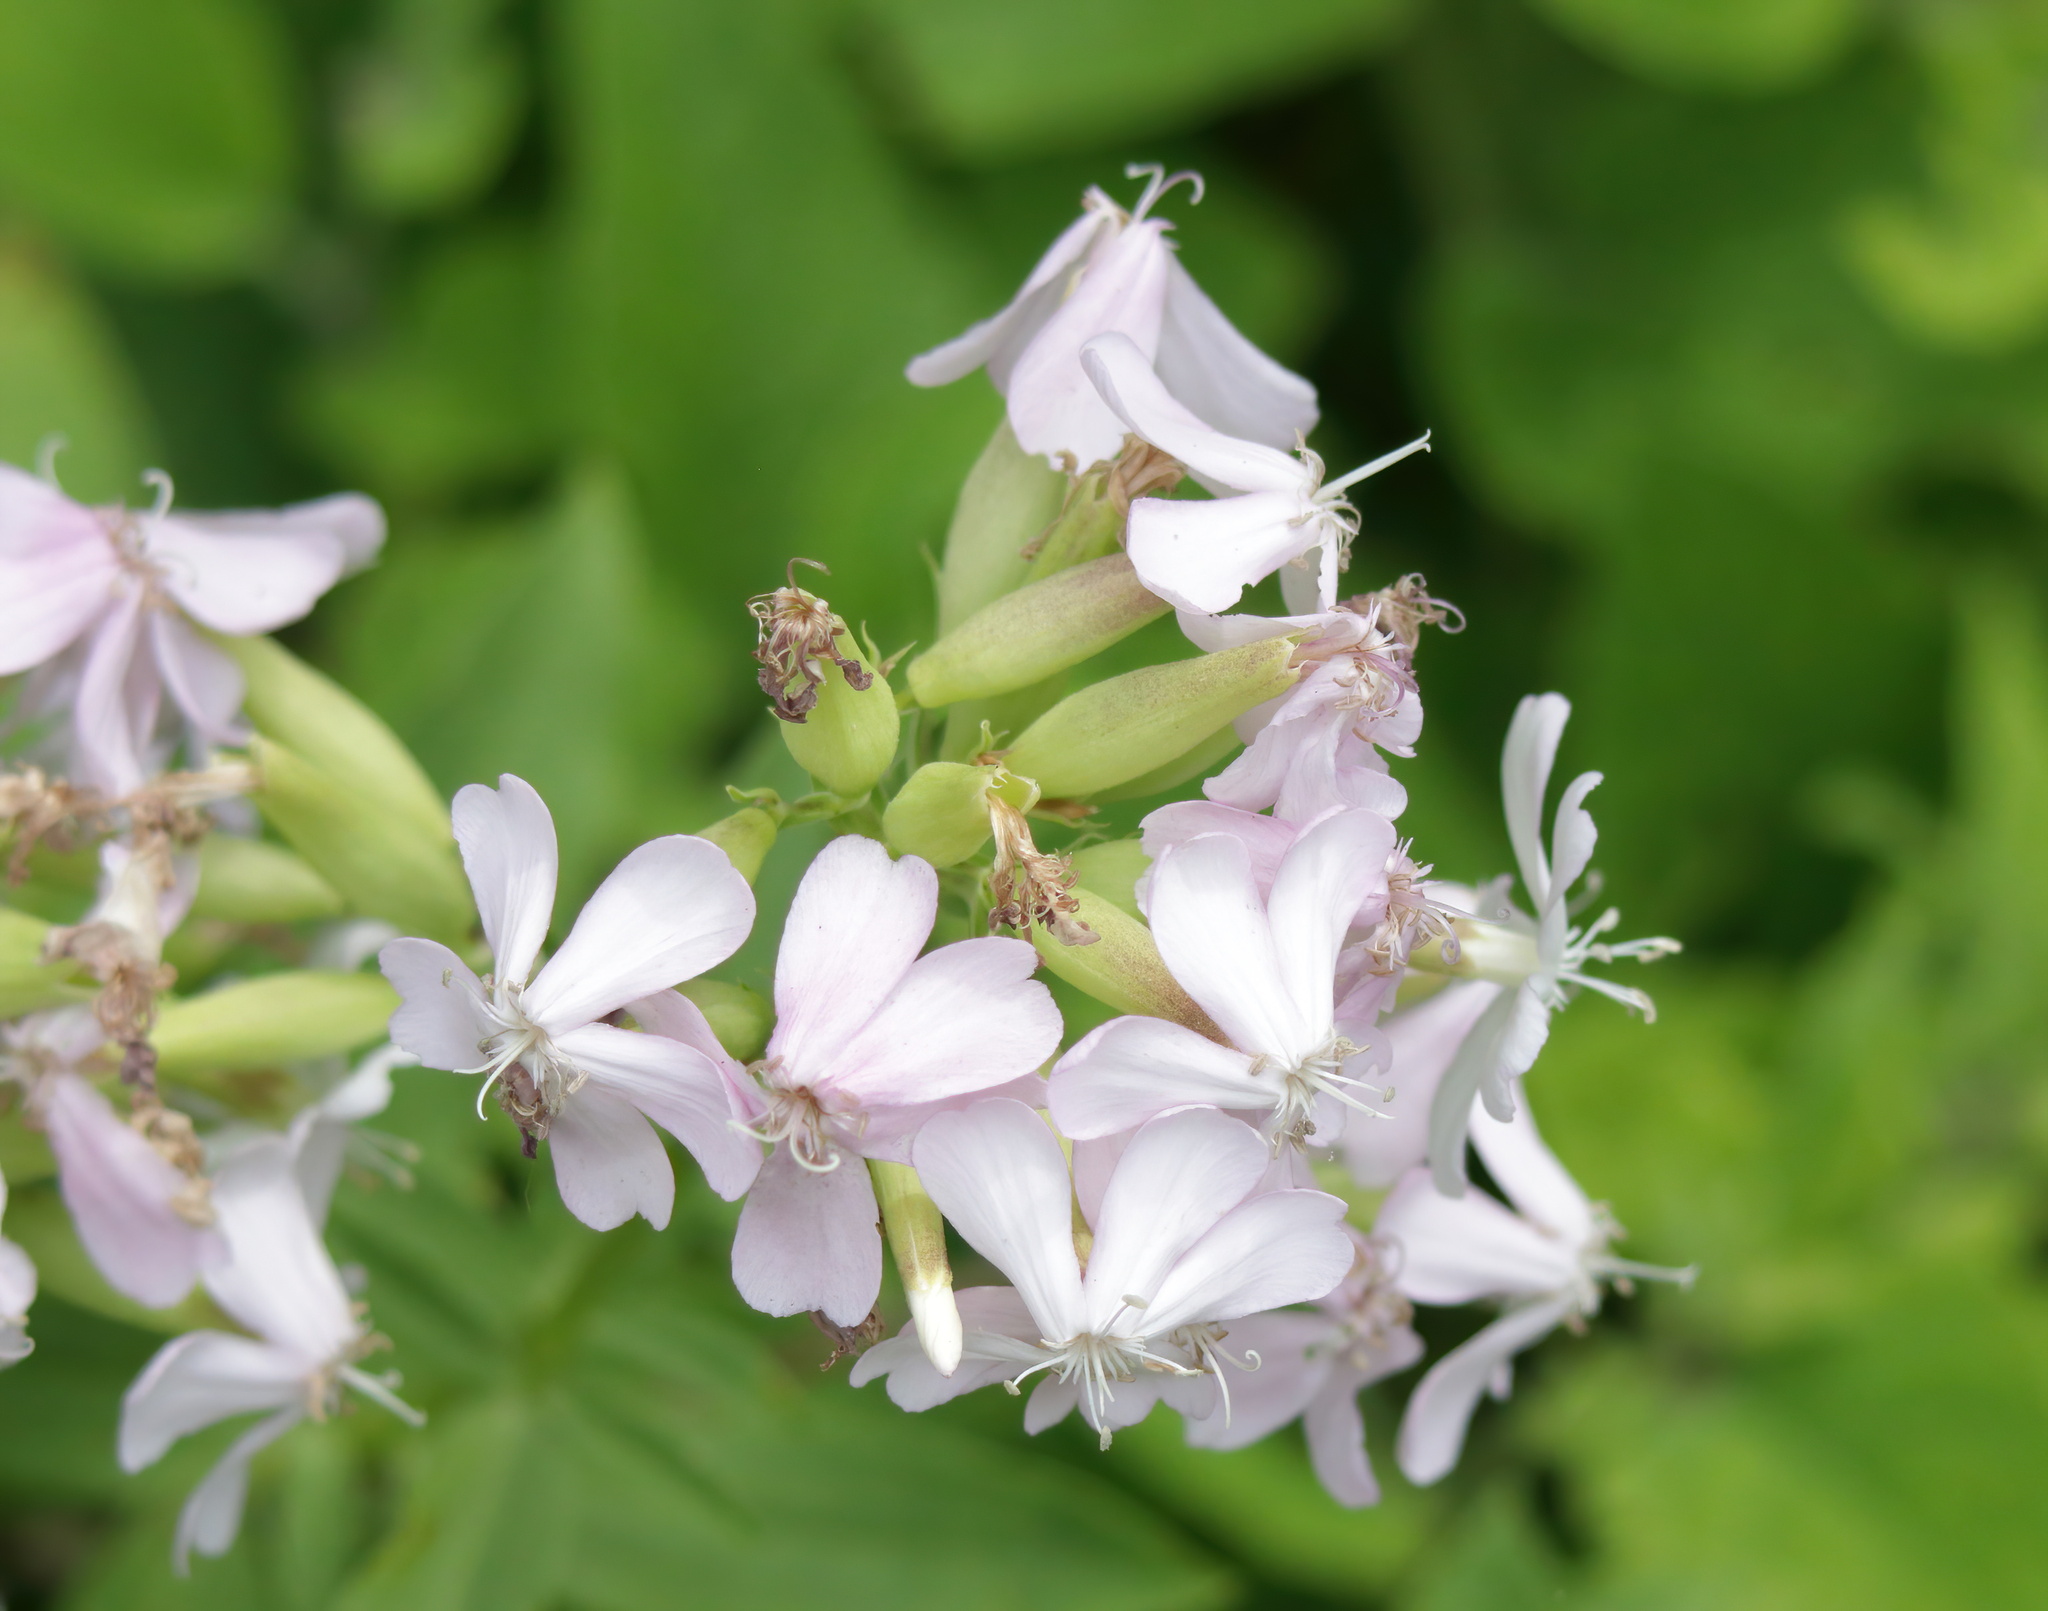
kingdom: Plantae
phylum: Tracheophyta
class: Magnoliopsida
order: Caryophyllales
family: Caryophyllaceae
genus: Saponaria
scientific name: Saponaria officinalis
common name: Soapwort
